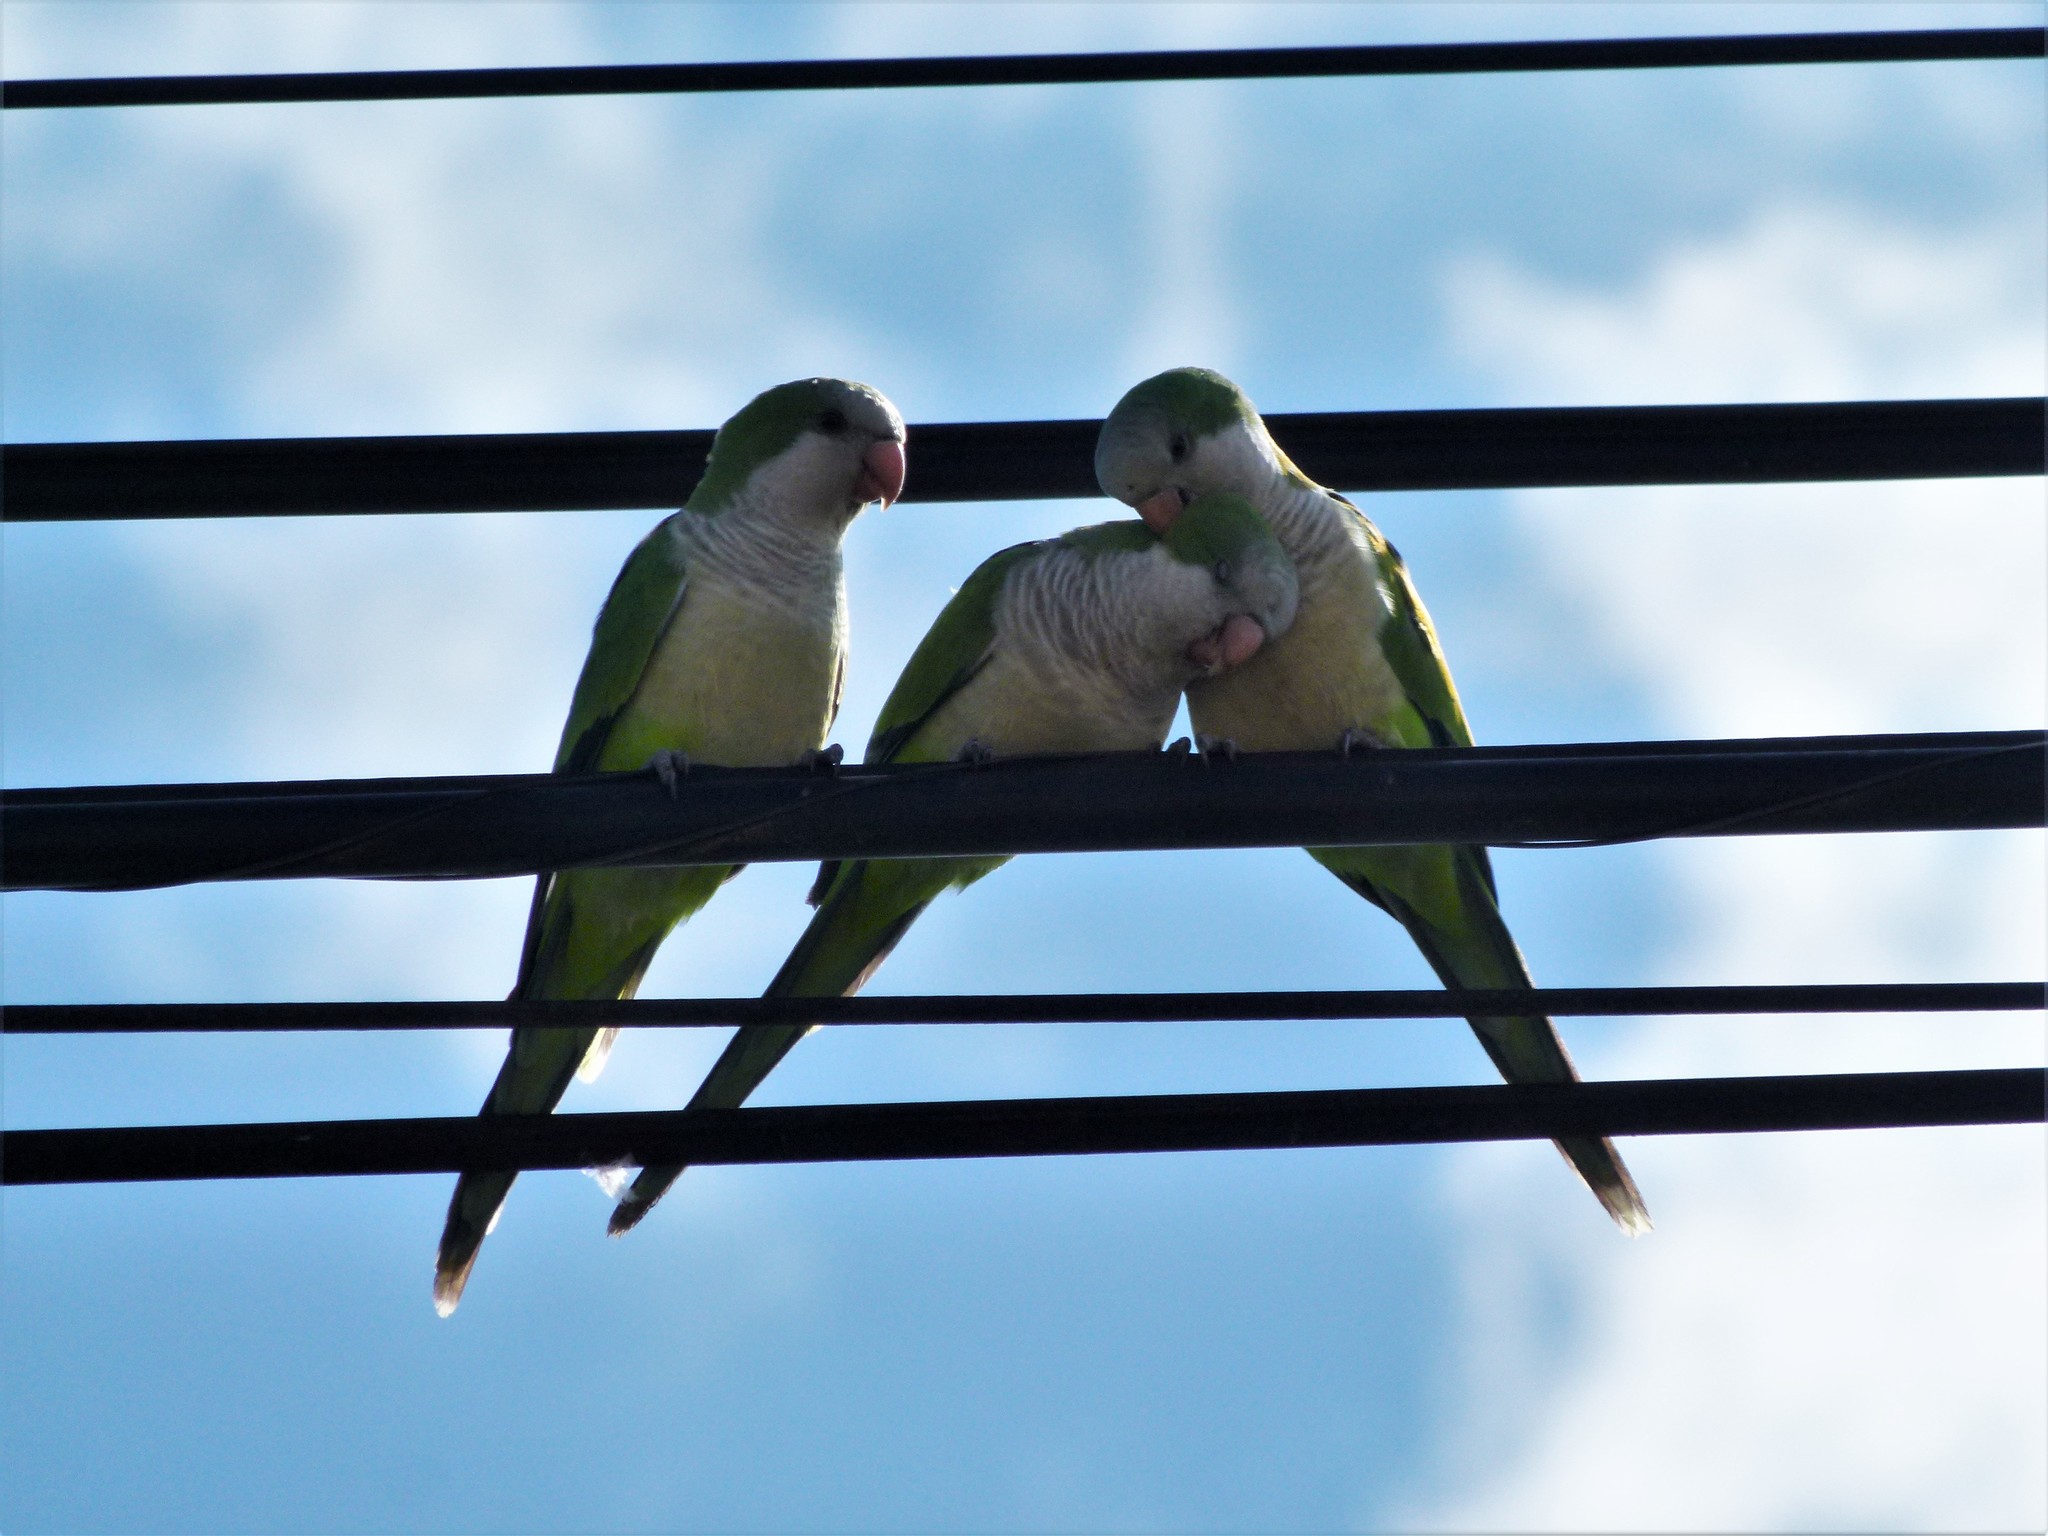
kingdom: Animalia
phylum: Chordata
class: Aves
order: Psittaciformes
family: Psittacidae
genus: Myiopsitta
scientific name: Myiopsitta monachus
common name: Monk parakeet
